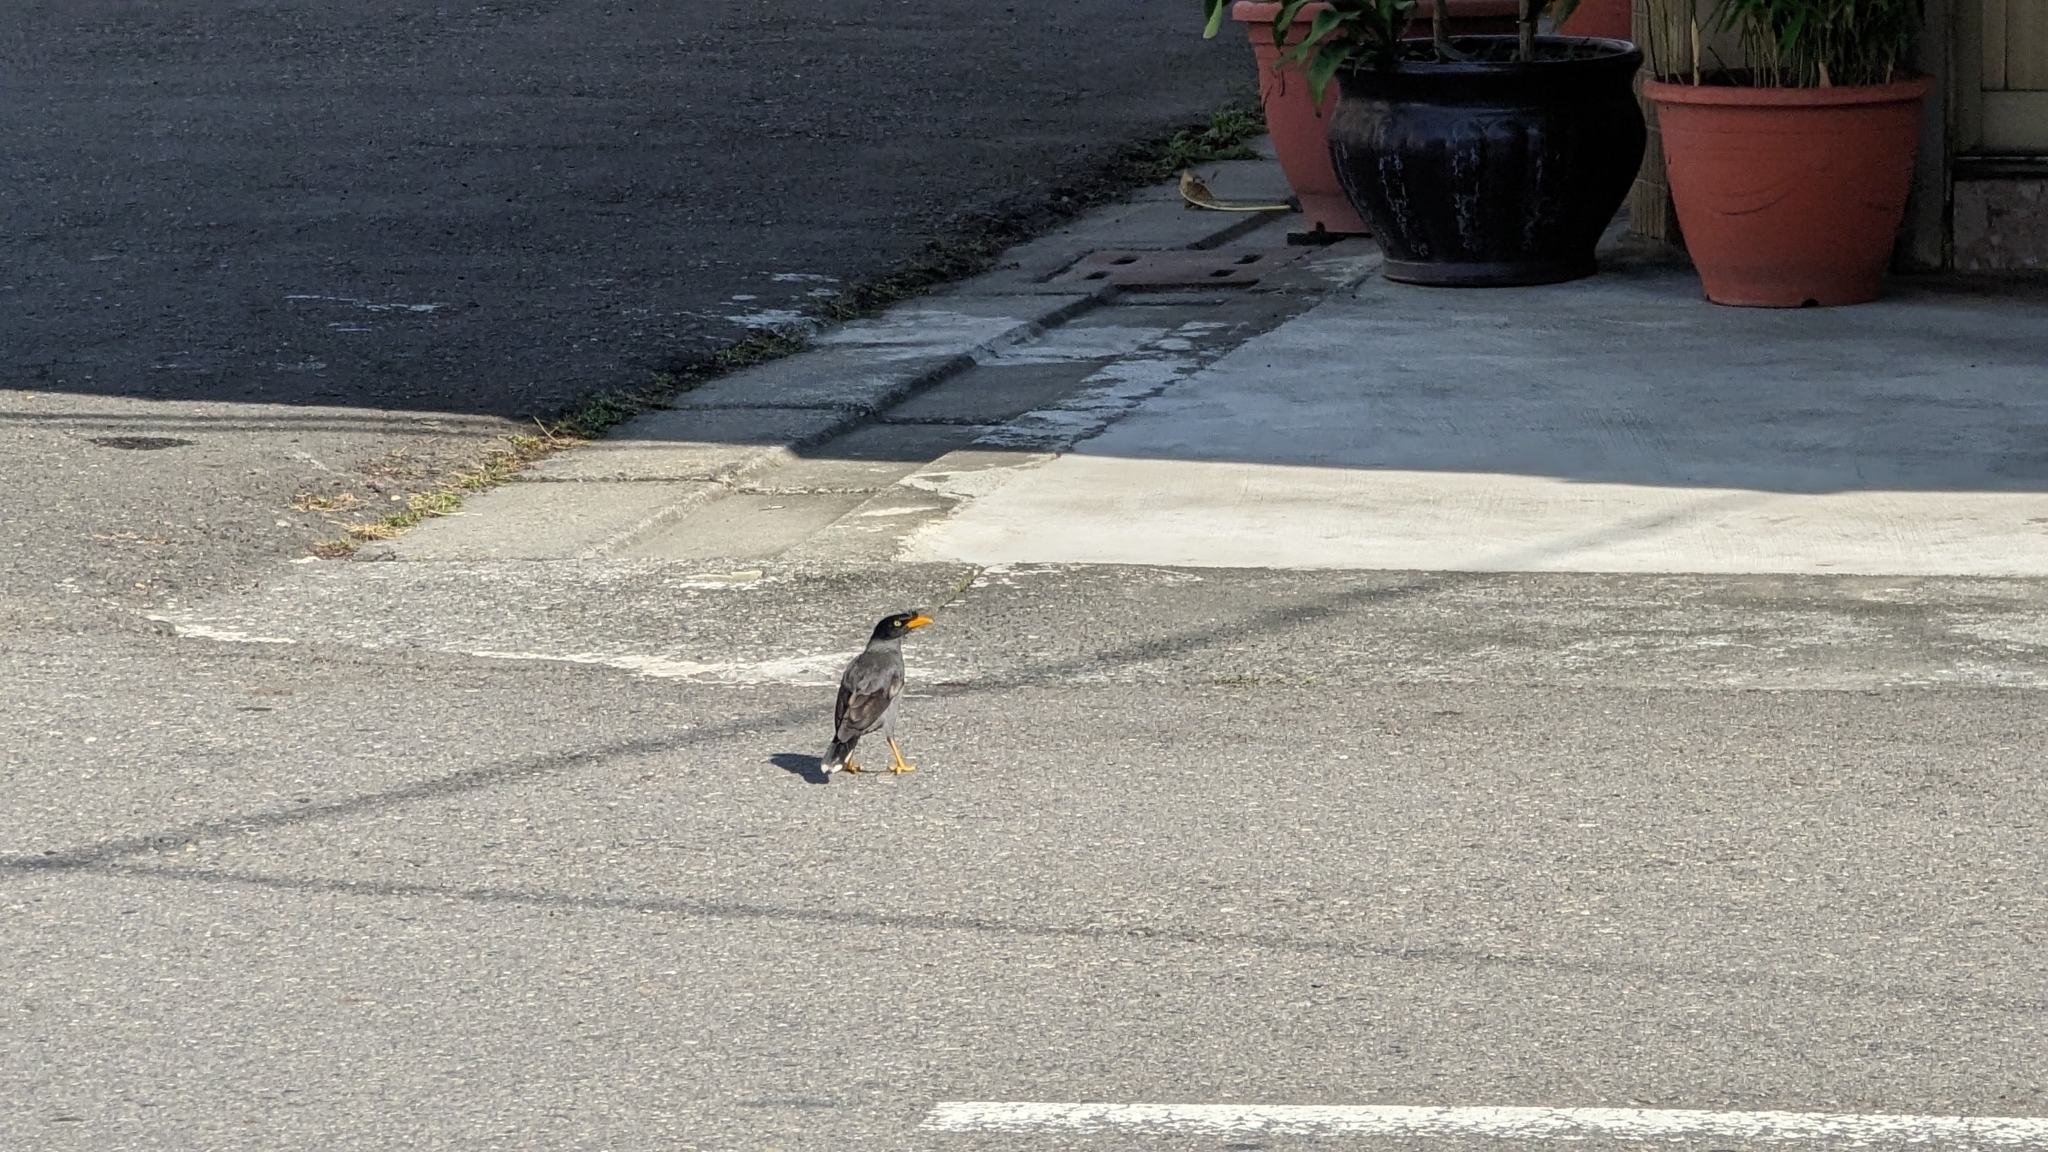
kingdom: Animalia
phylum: Chordata
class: Aves
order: Passeriformes
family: Sturnidae
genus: Acridotheres
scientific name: Acridotheres javanicus
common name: Javan myna
